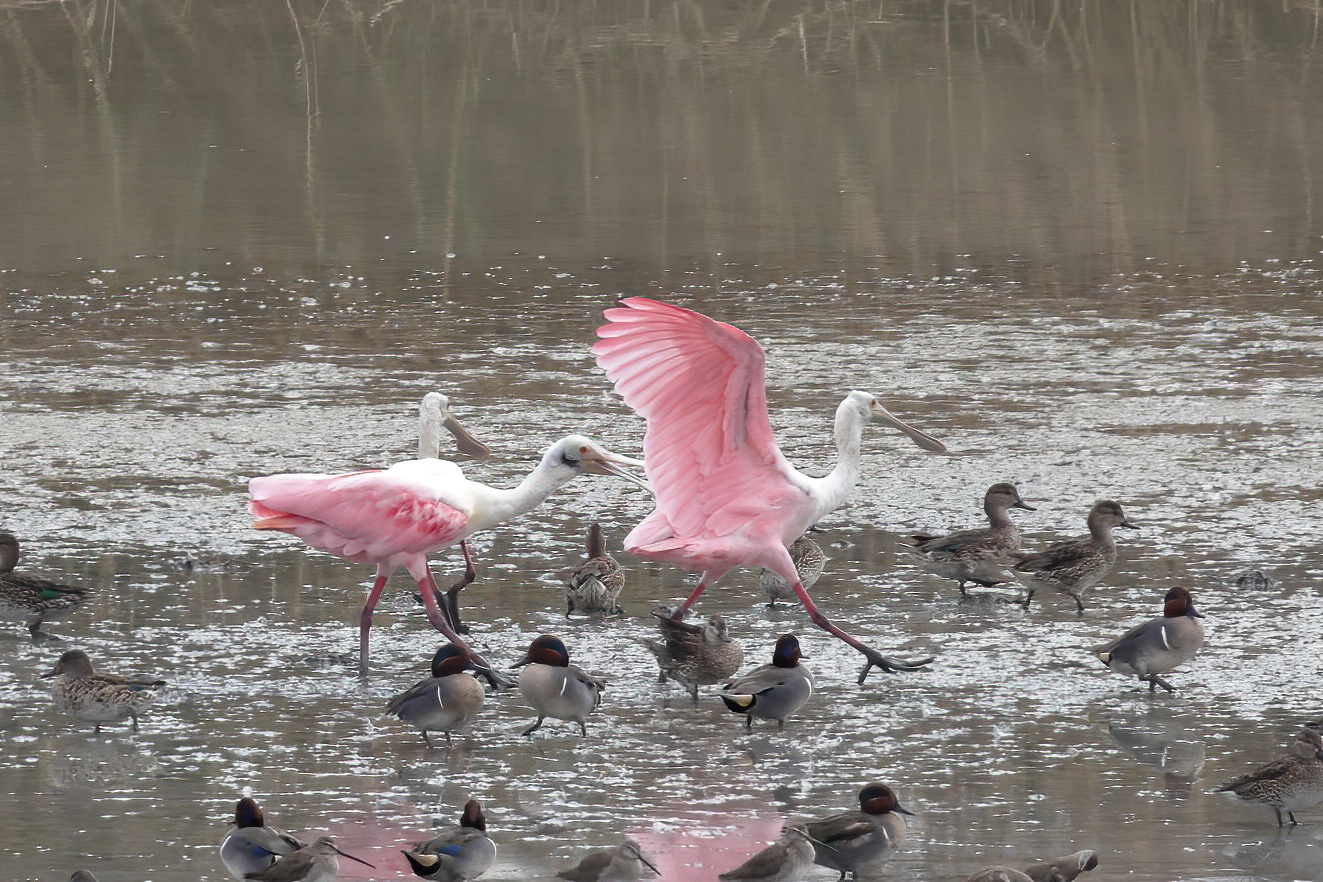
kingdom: Animalia
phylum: Chordata
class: Aves
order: Pelecaniformes
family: Threskiornithidae
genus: Platalea
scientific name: Platalea ajaja
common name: Roseate spoonbill
